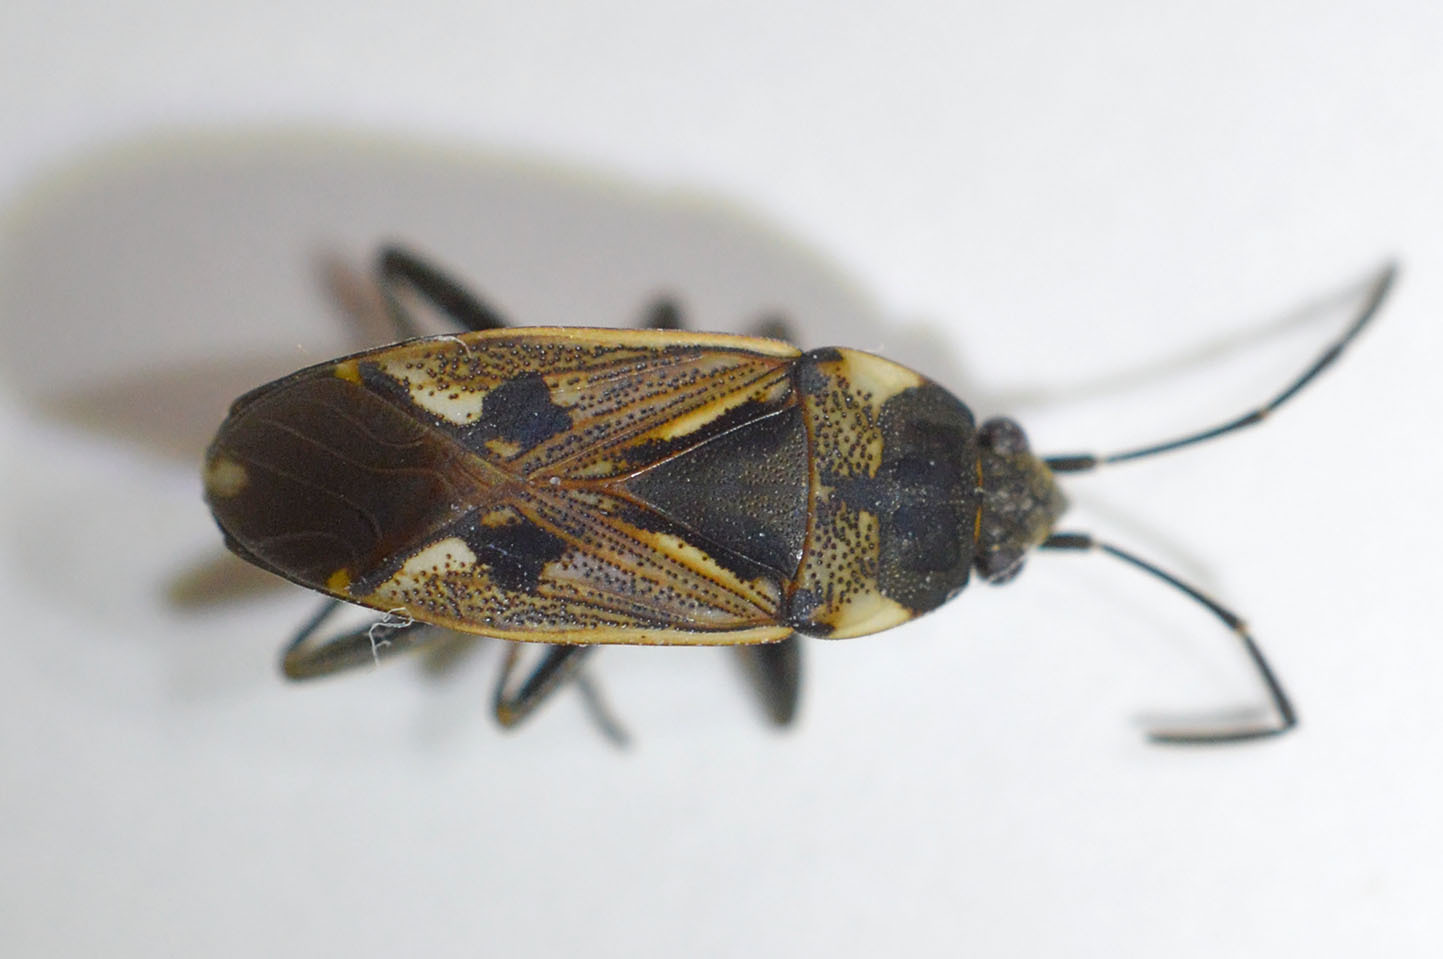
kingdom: Animalia
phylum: Arthropoda
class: Insecta
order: Hemiptera
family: Rhyparochromidae
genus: Rhyparochromus
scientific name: Rhyparochromus vulgaris
